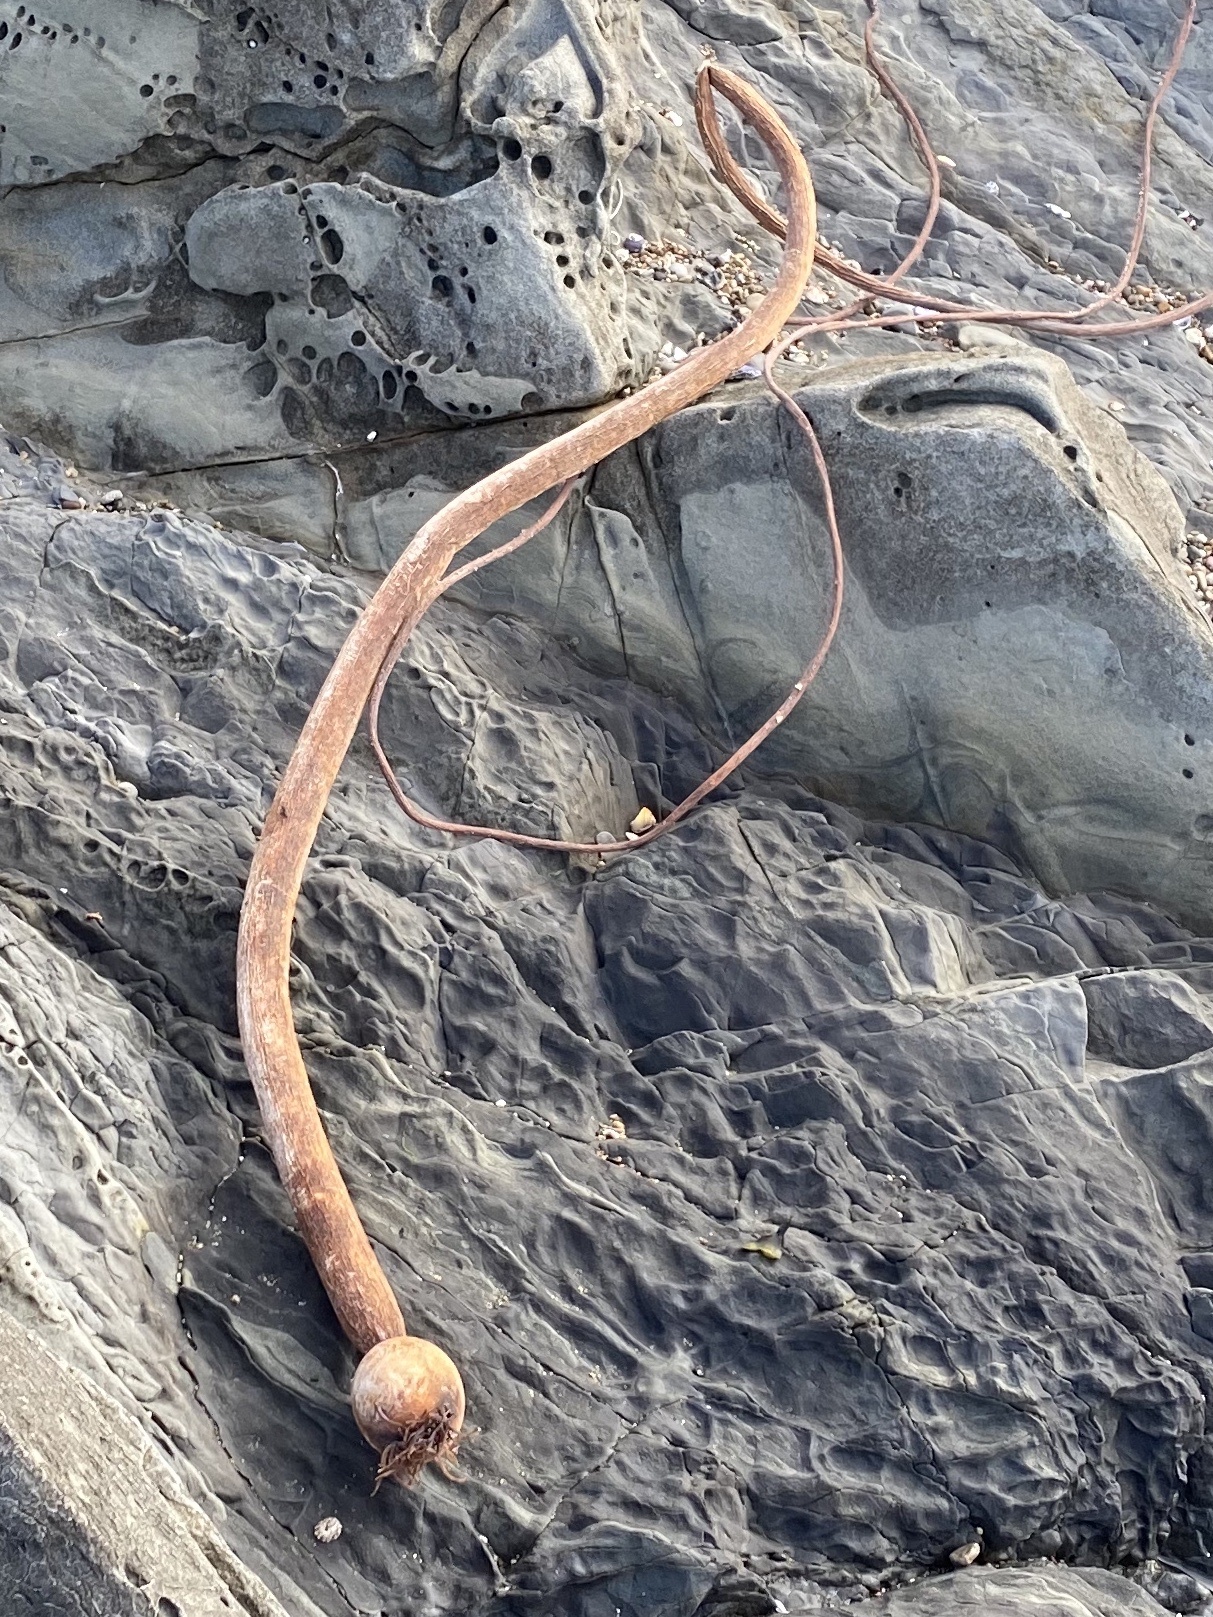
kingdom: Chromista
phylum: Ochrophyta
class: Phaeophyceae
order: Laminariales
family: Laminariaceae
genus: Nereocystis
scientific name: Nereocystis luetkeana
